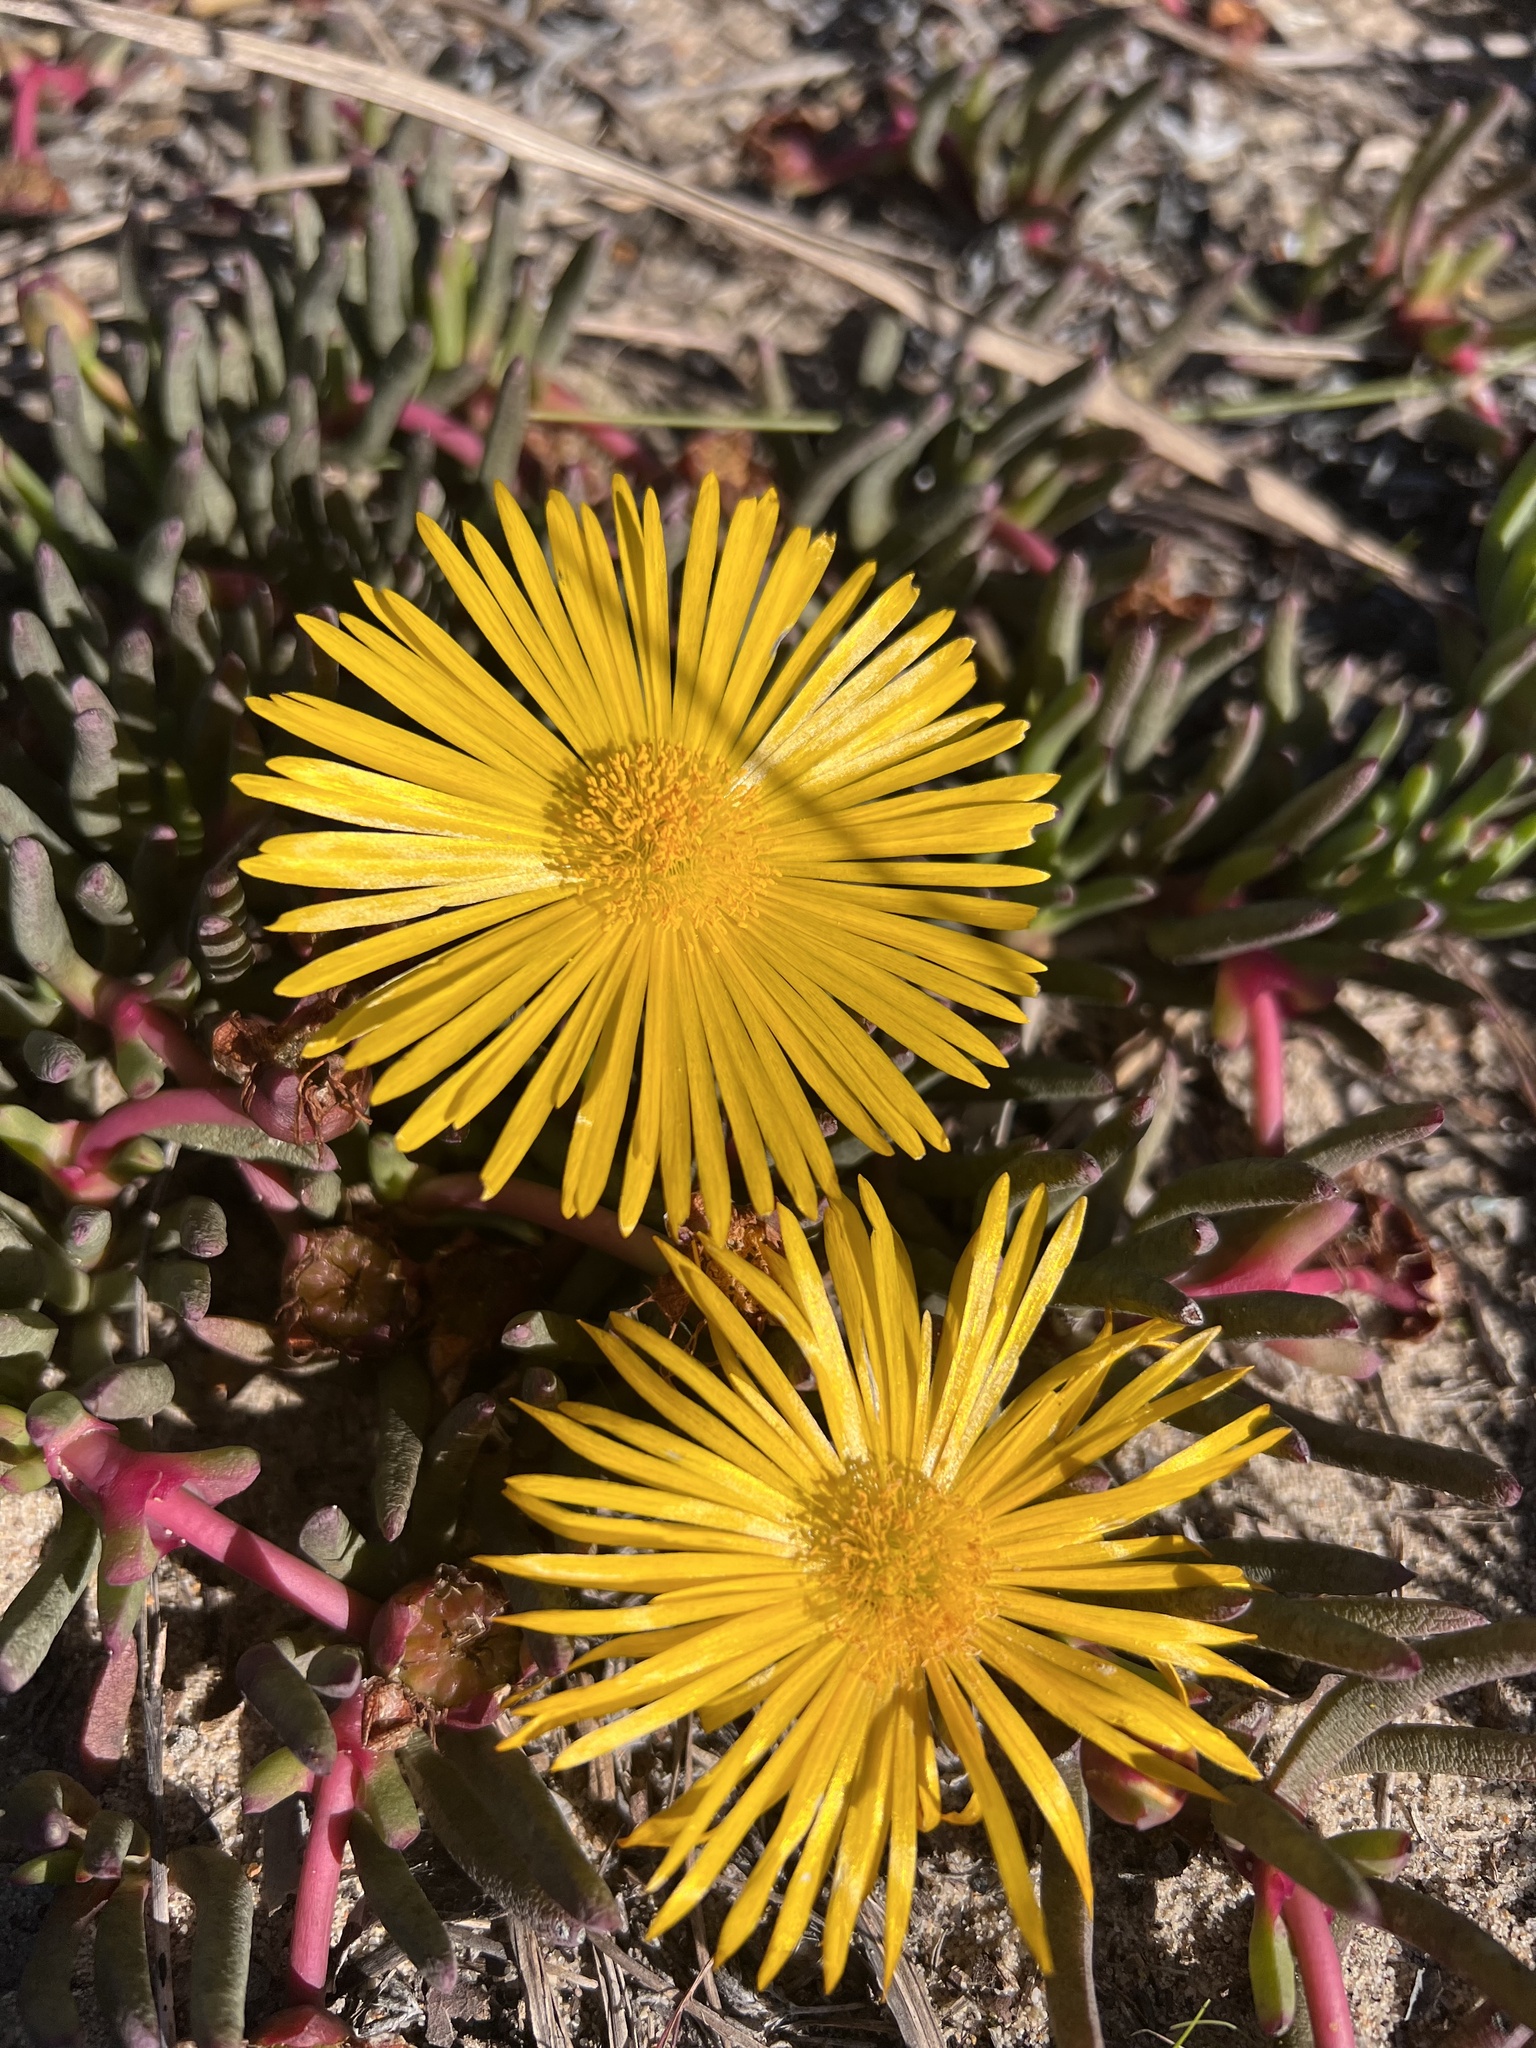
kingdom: Plantae
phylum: Tracheophyta
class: Magnoliopsida
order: Caryophyllales
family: Aizoaceae
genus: Jordaaniella
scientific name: Jordaaniella dubia
